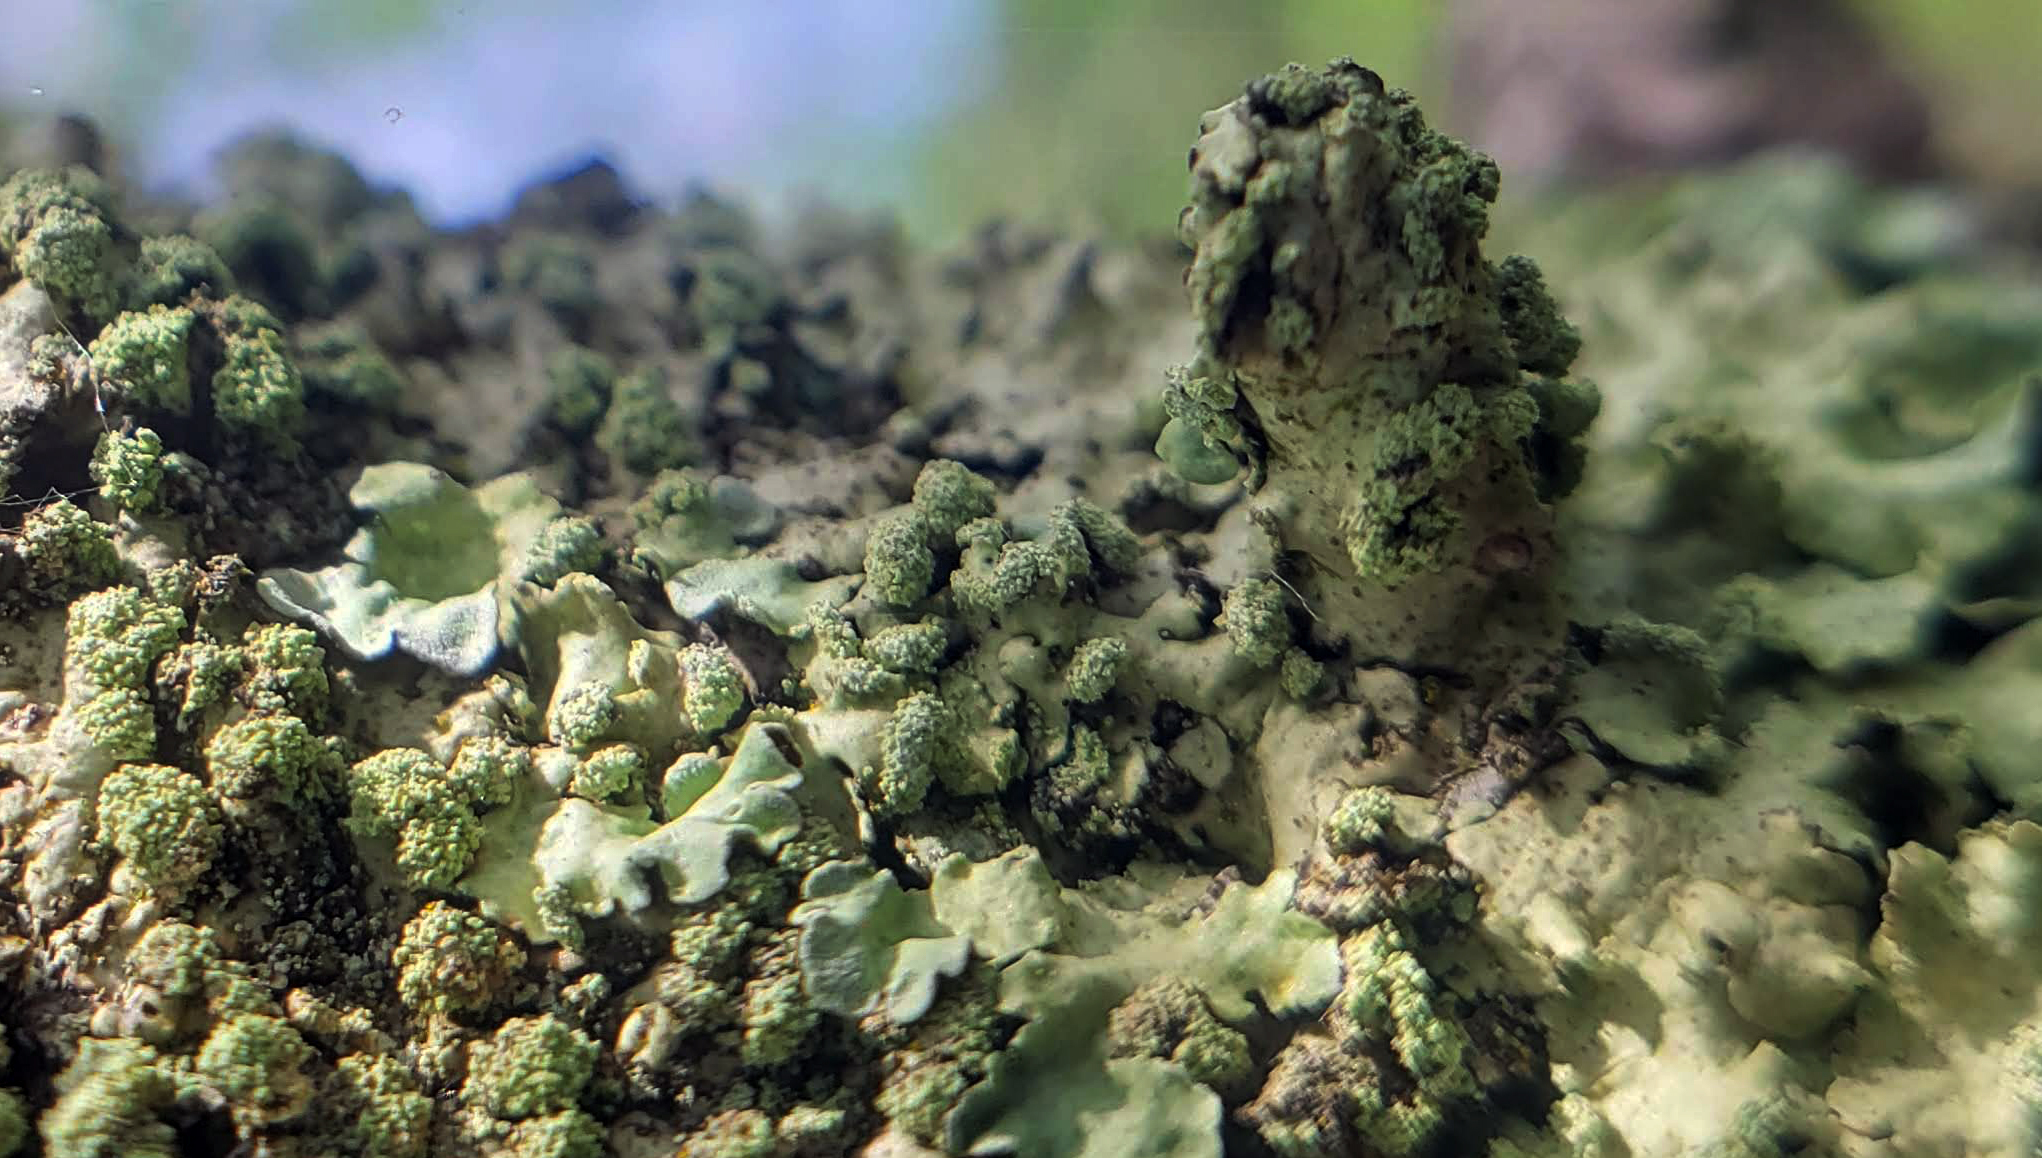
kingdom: Fungi
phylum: Ascomycota
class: Lecanoromycetes
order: Lecanorales
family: Parmeliaceae
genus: Flavopunctelia
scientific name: Flavopunctelia soredica
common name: Powder-edged speckled greenshield
